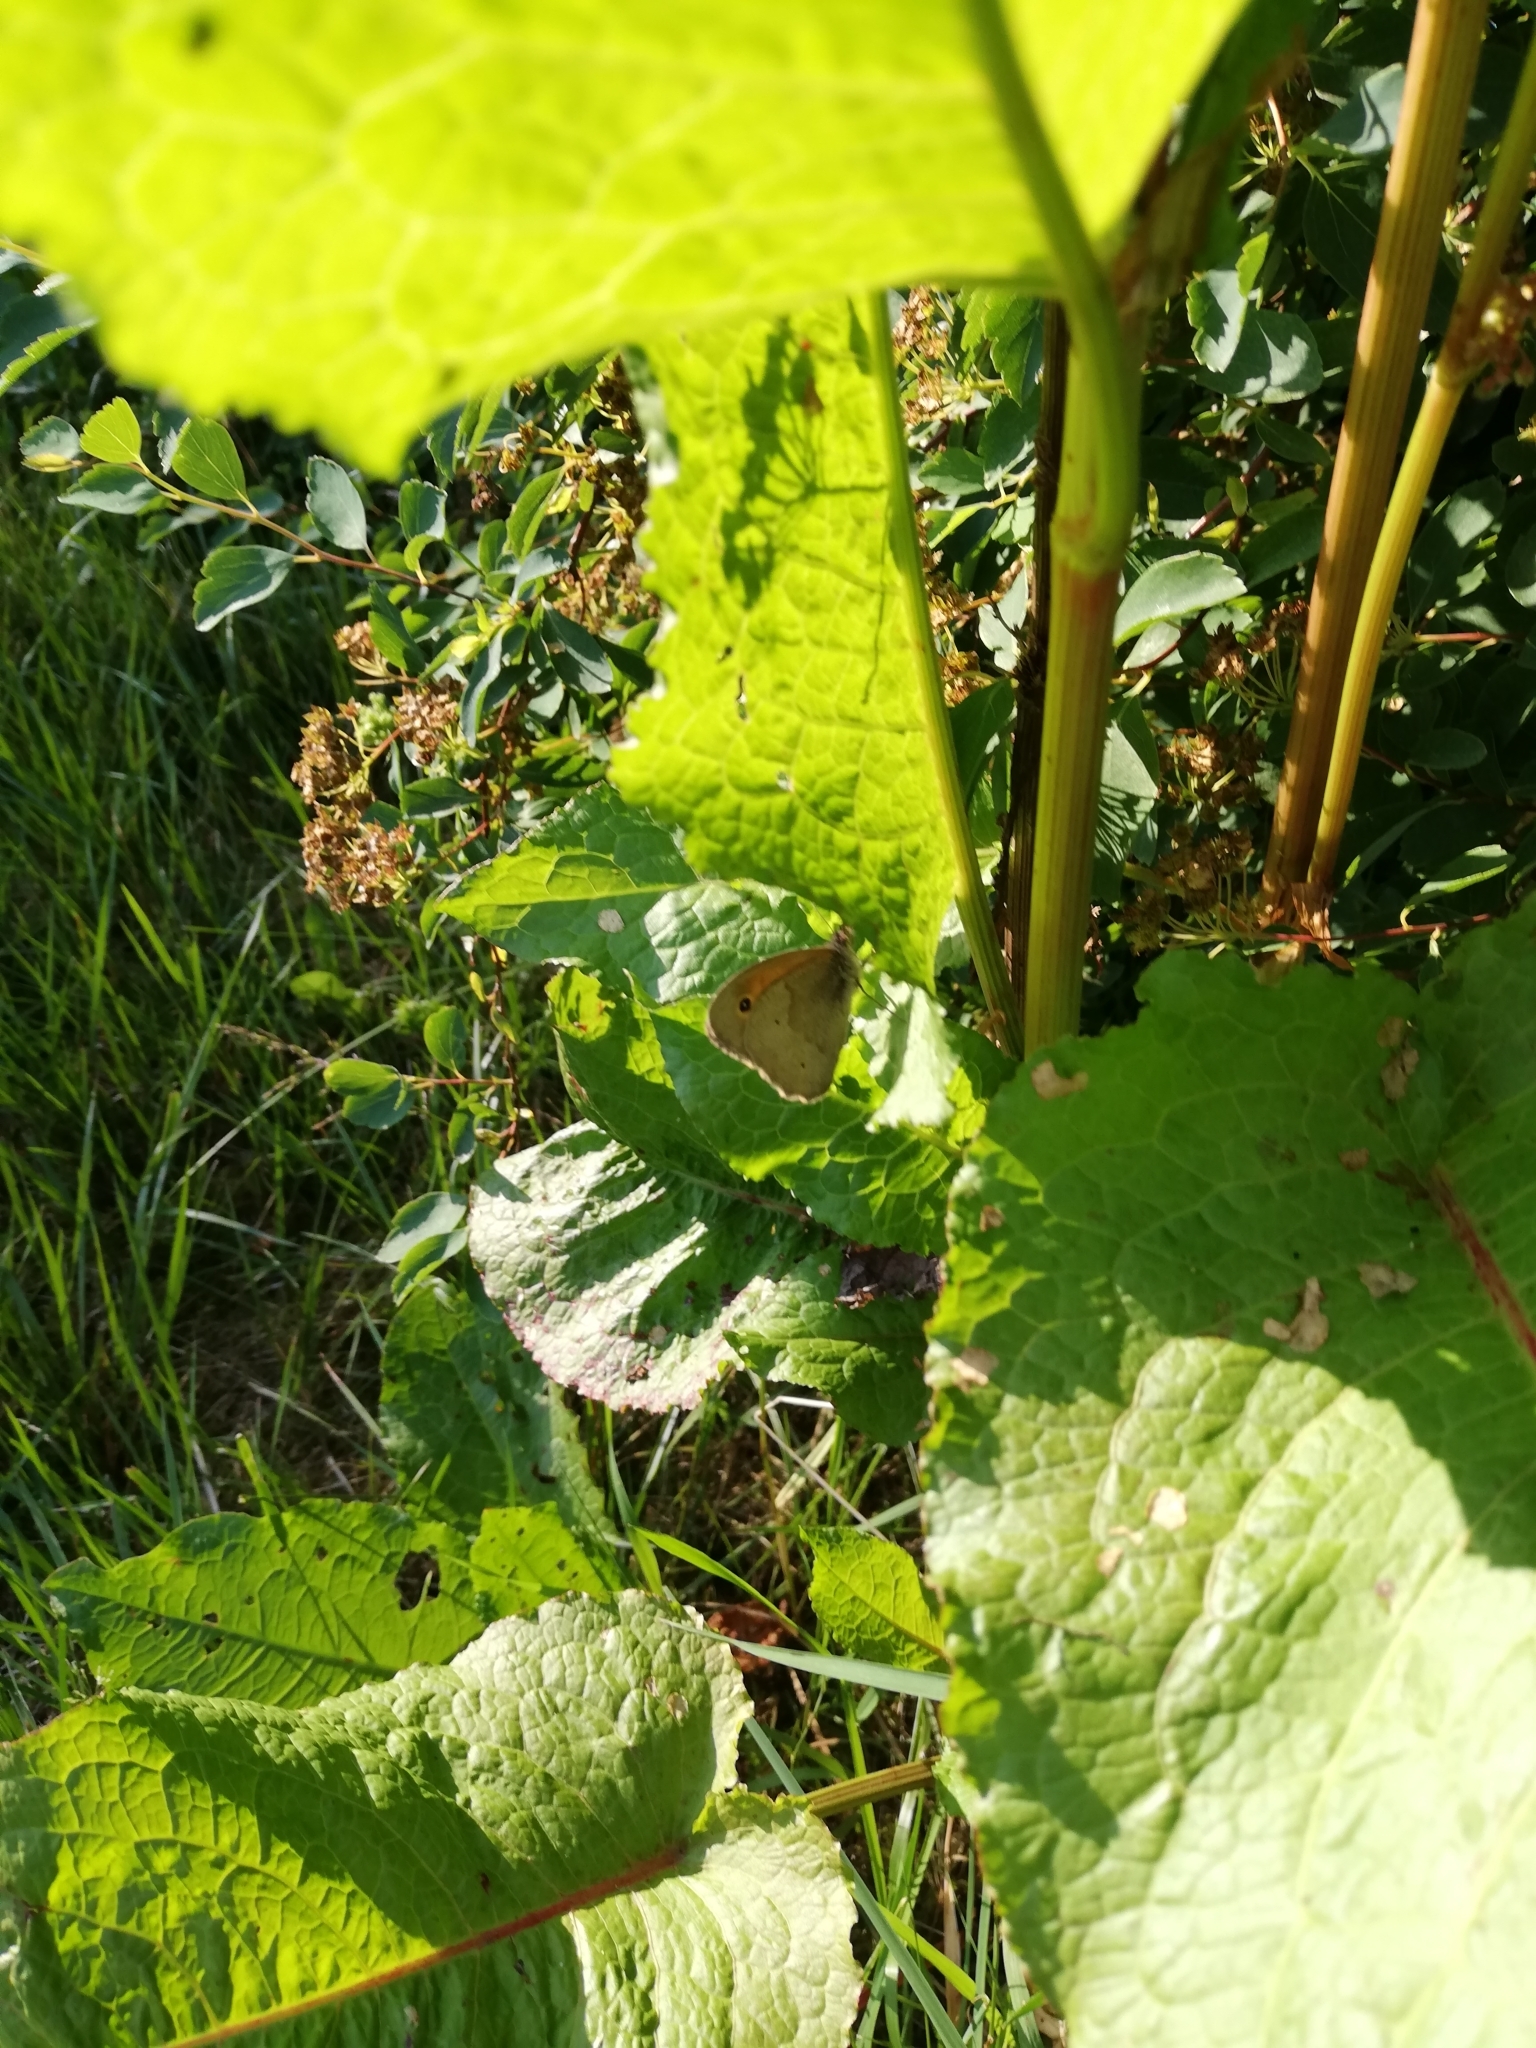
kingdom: Animalia
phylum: Arthropoda
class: Insecta
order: Lepidoptera
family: Nymphalidae
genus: Maniola
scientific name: Maniola jurtina
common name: Meadow brown
